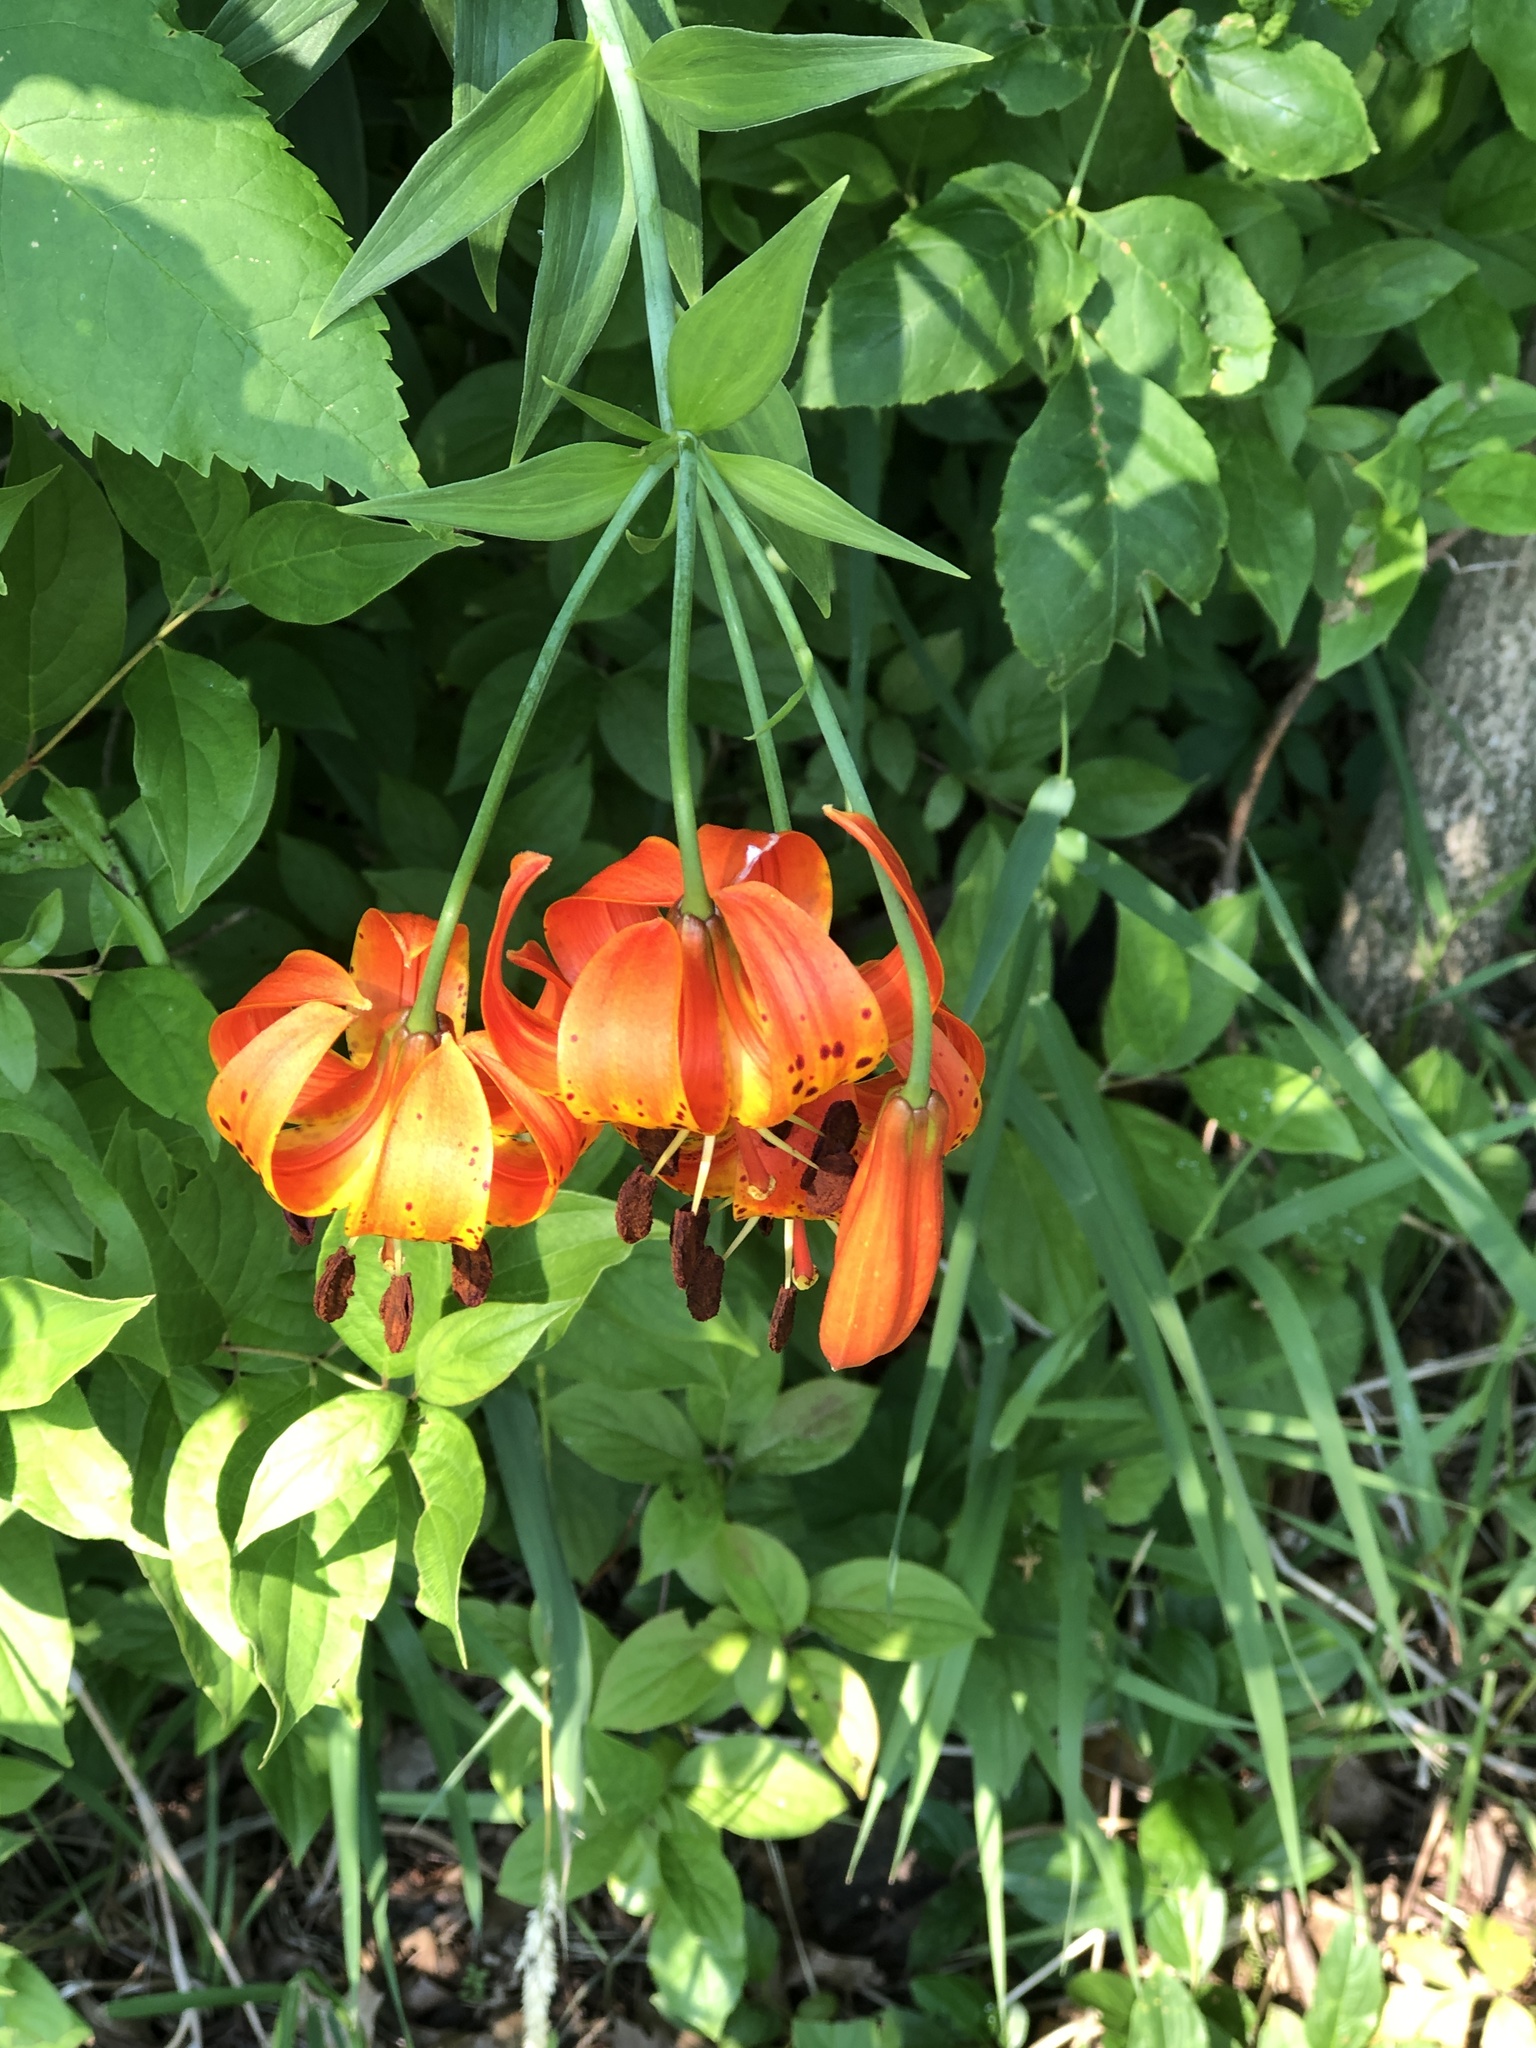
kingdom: Plantae
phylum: Tracheophyta
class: Liliopsida
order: Liliales
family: Liliaceae
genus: Lilium
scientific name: Lilium michiganense
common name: Michigan lily
